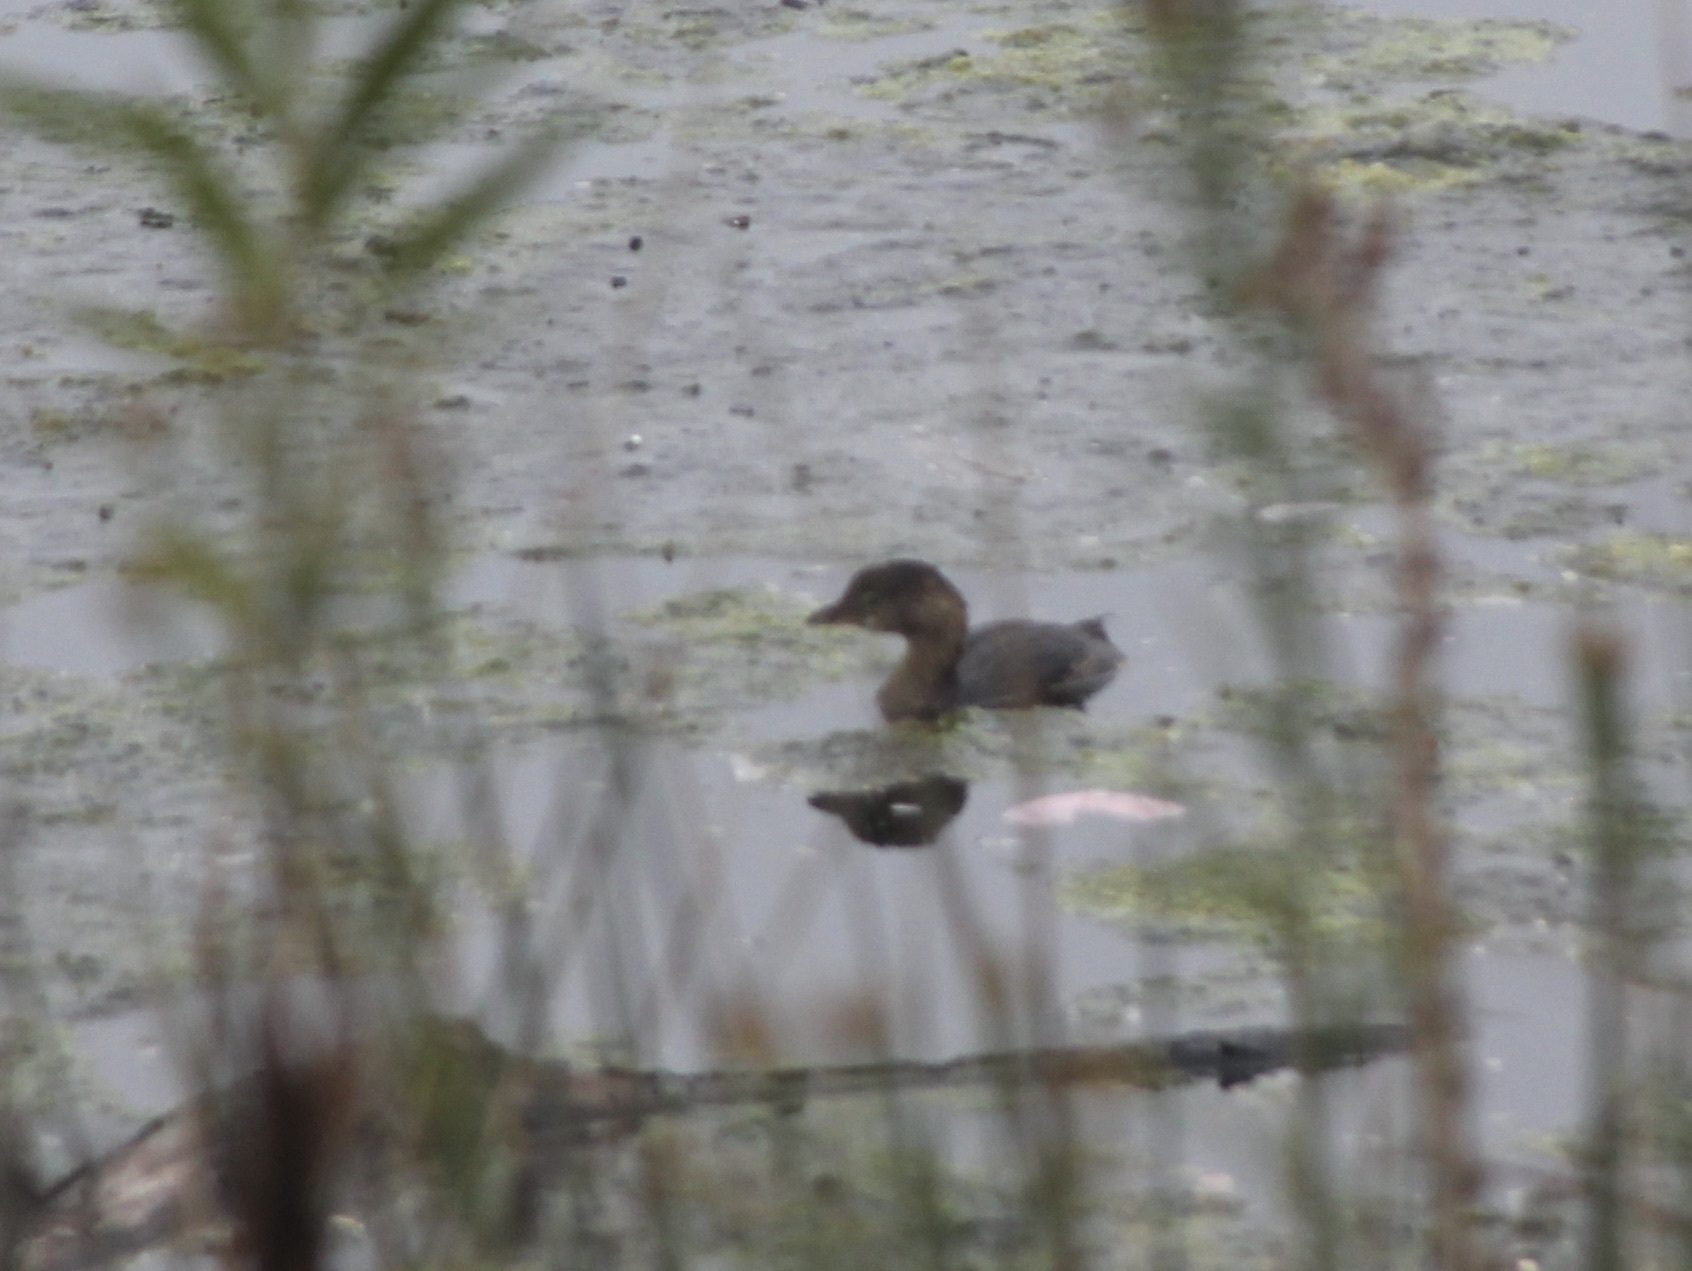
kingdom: Animalia
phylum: Chordata
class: Aves
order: Podicipediformes
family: Podicipedidae
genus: Podilymbus
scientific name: Podilymbus podiceps
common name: Pied-billed grebe
